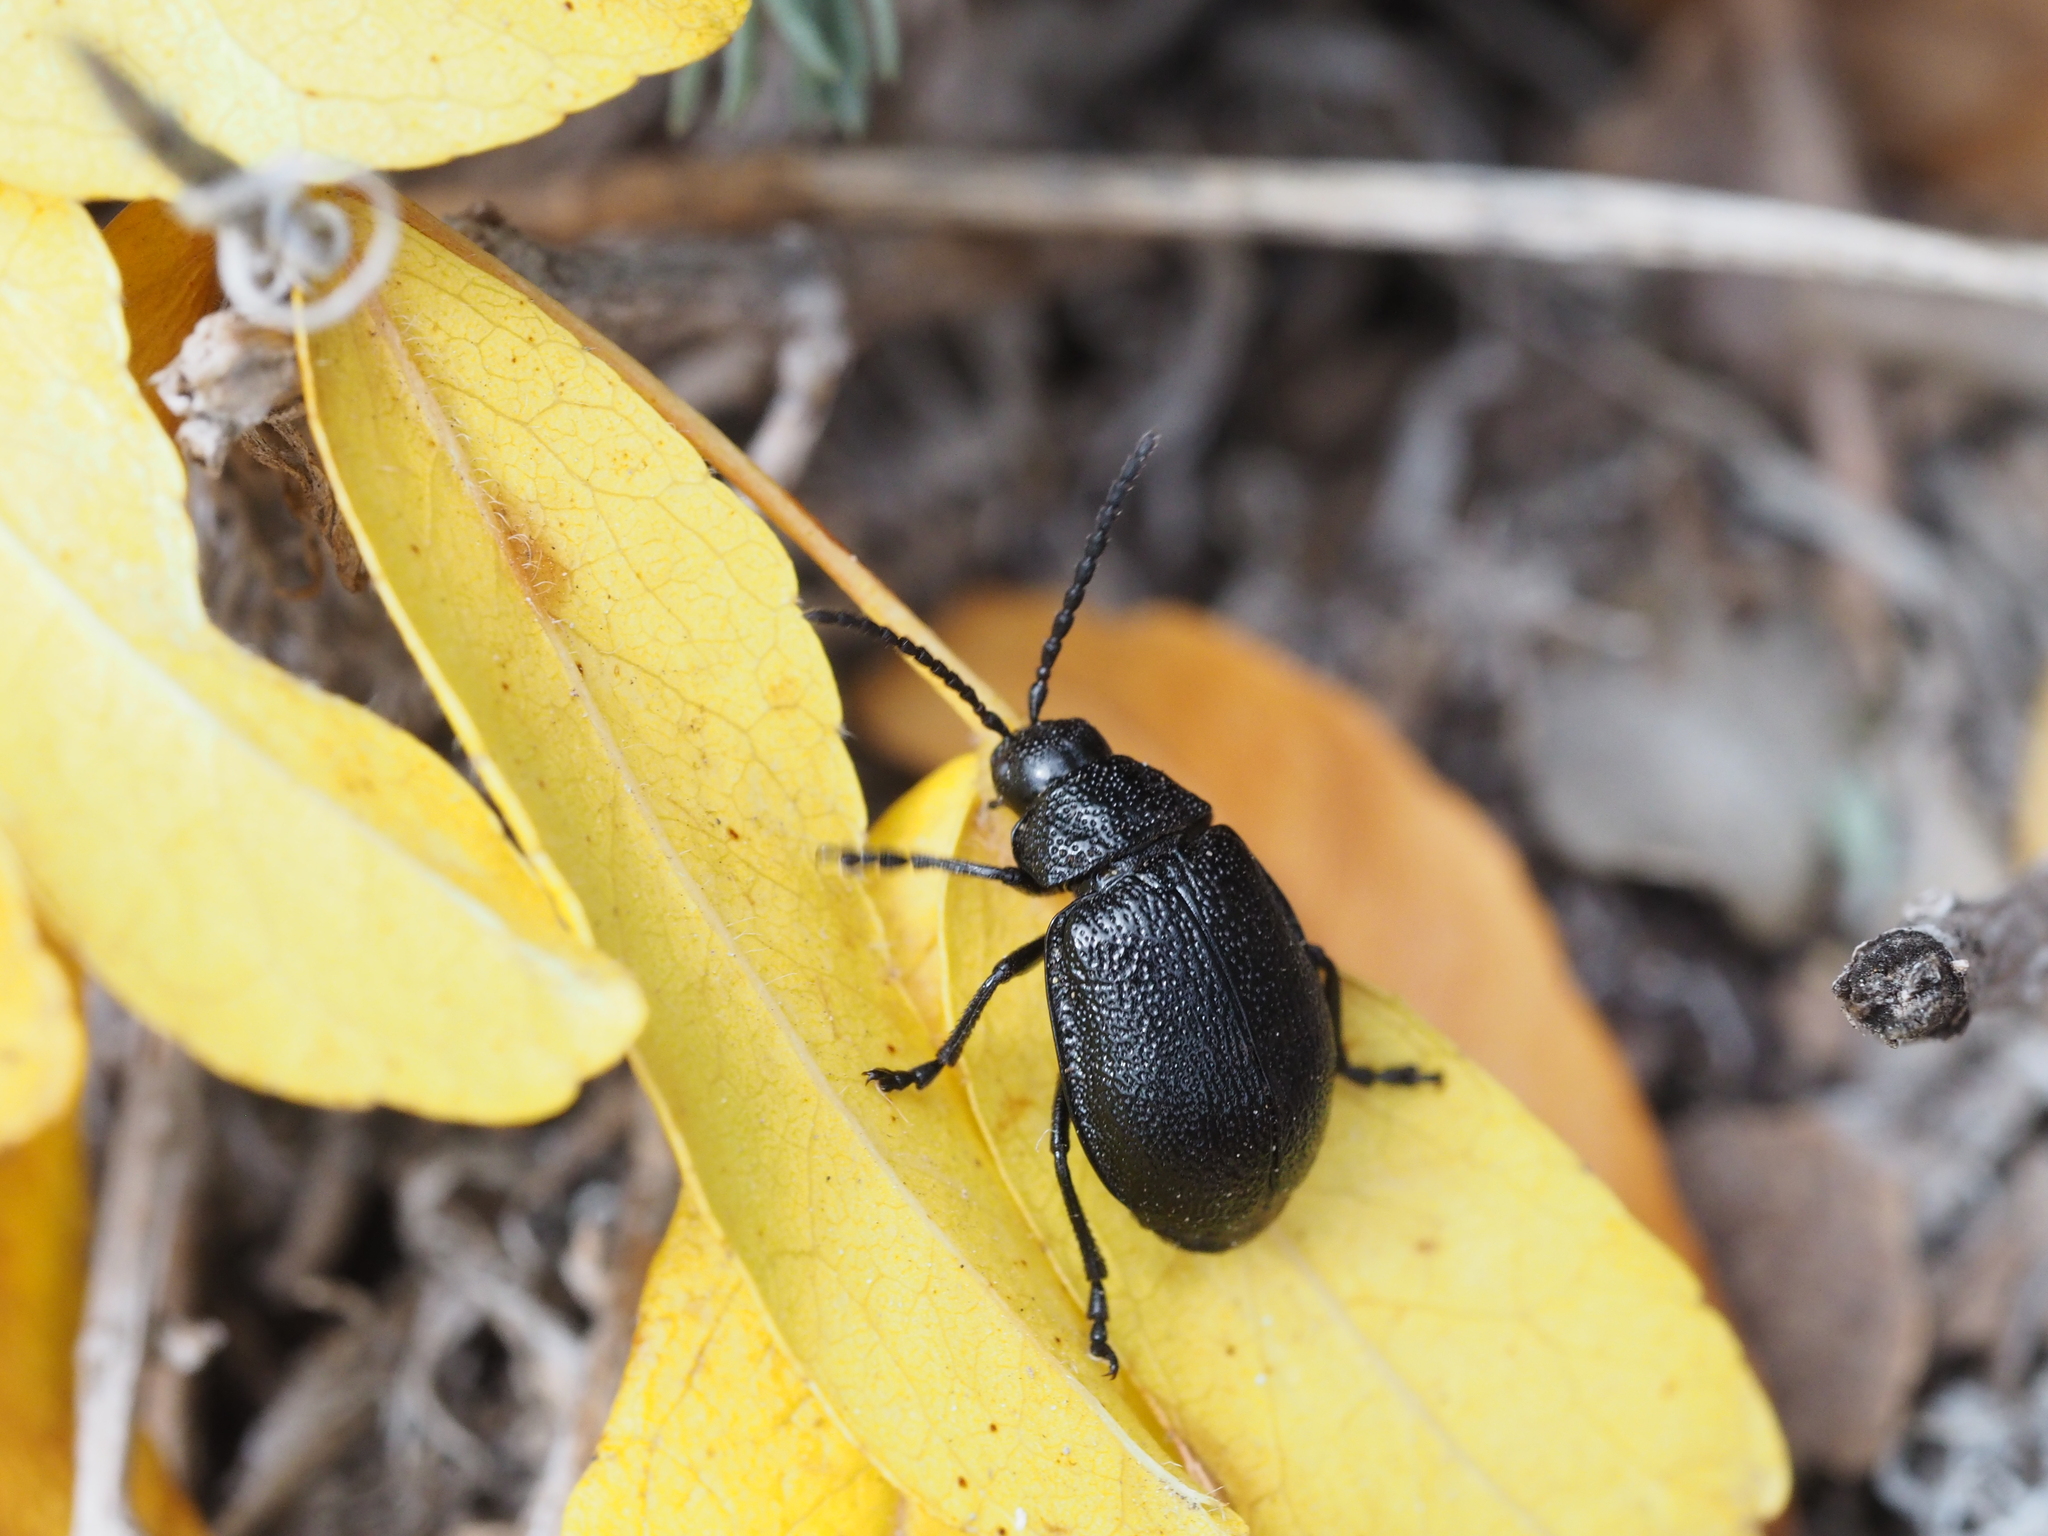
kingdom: Animalia
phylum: Arthropoda
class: Insecta
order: Coleoptera
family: Chrysomelidae
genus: Galeruca
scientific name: Galeruca tanaceti
